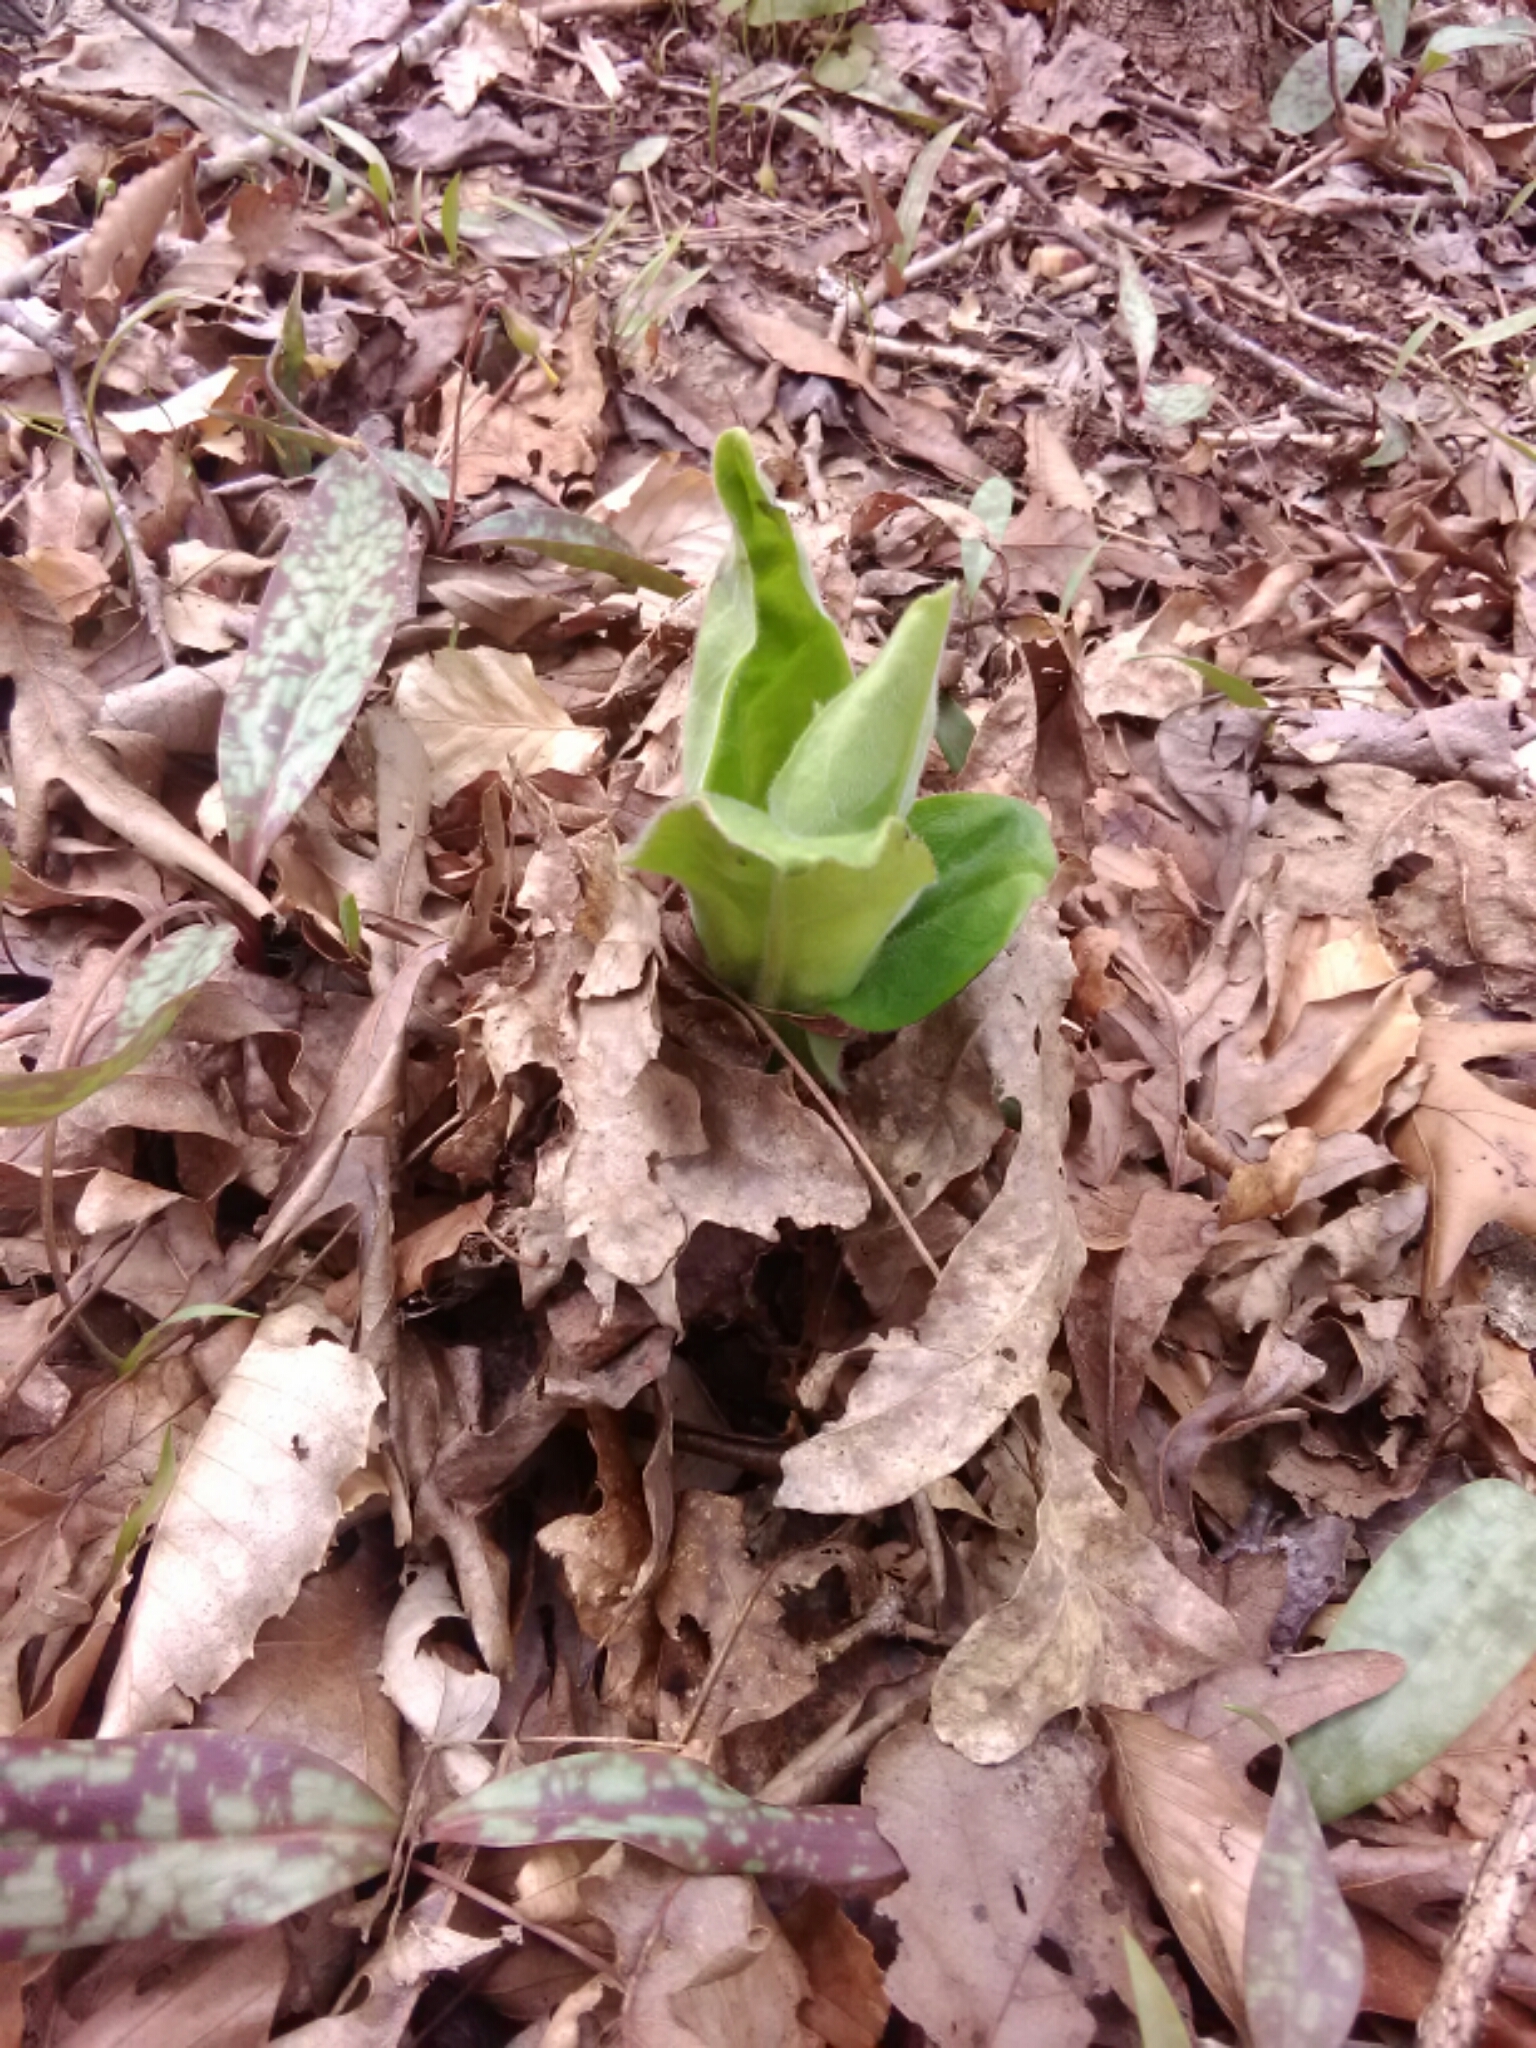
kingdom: Plantae
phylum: Tracheophyta
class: Magnoliopsida
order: Boraginales
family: Boraginaceae
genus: Andersonglossum
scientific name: Andersonglossum virginianum
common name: Wild comfrey
